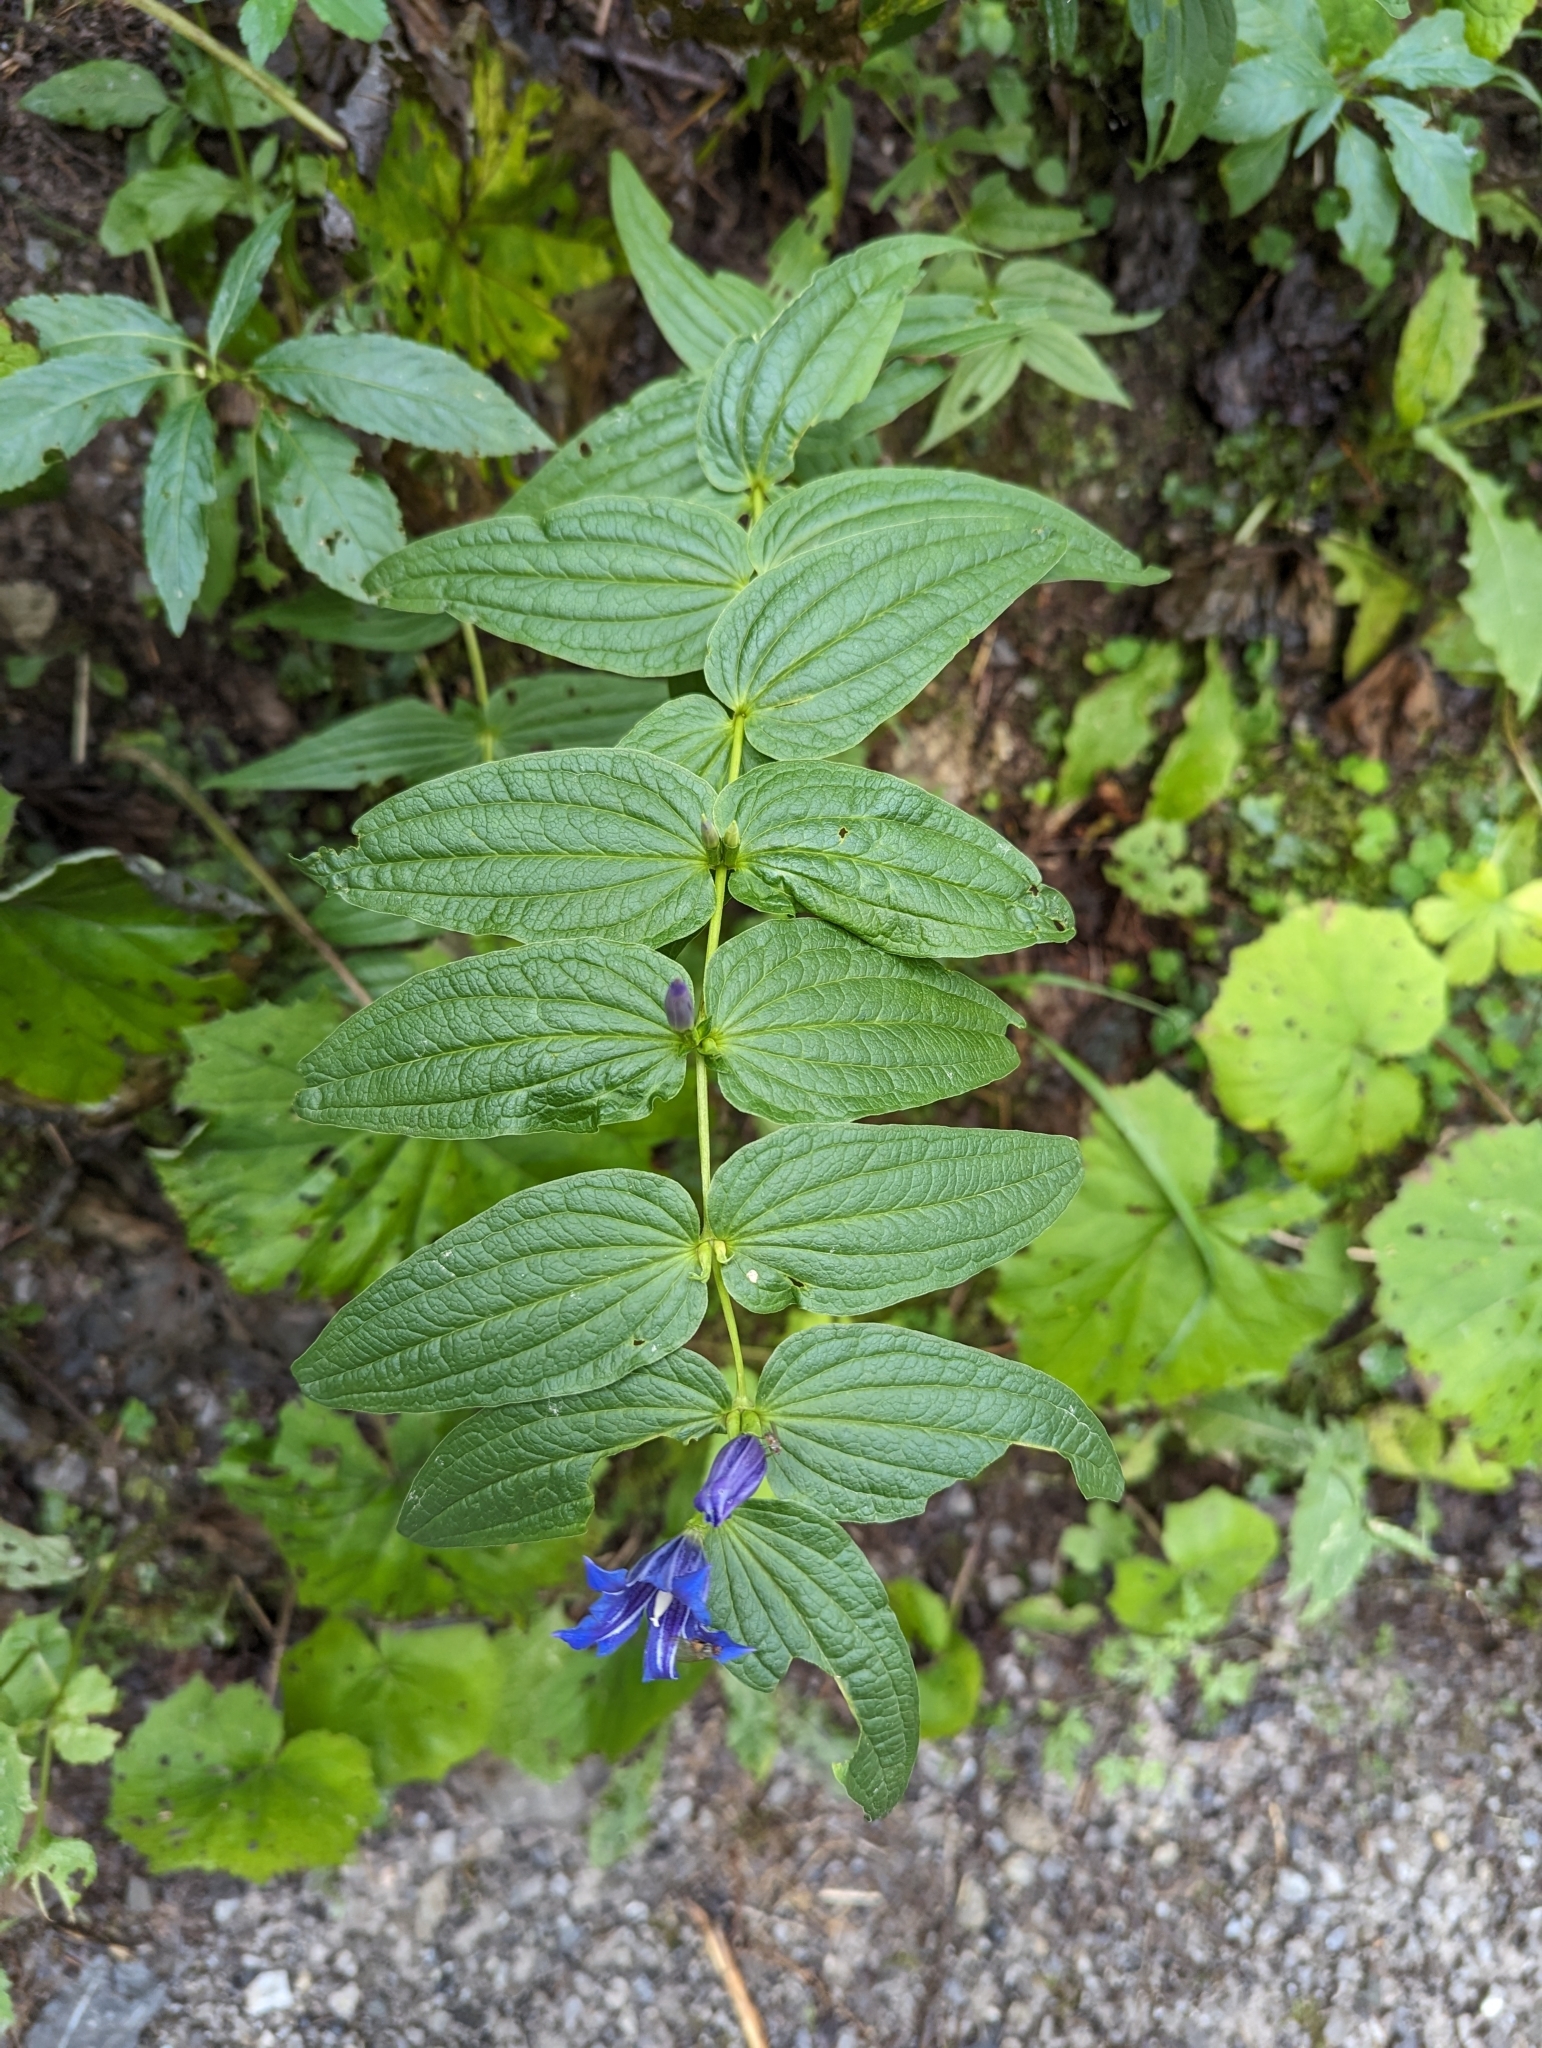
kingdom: Plantae
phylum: Tracheophyta
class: Magnoliopsida
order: Gentianales
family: Gentianaceae
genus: Gentiana
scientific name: Gentiana asclepiadea
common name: Willow gentian
